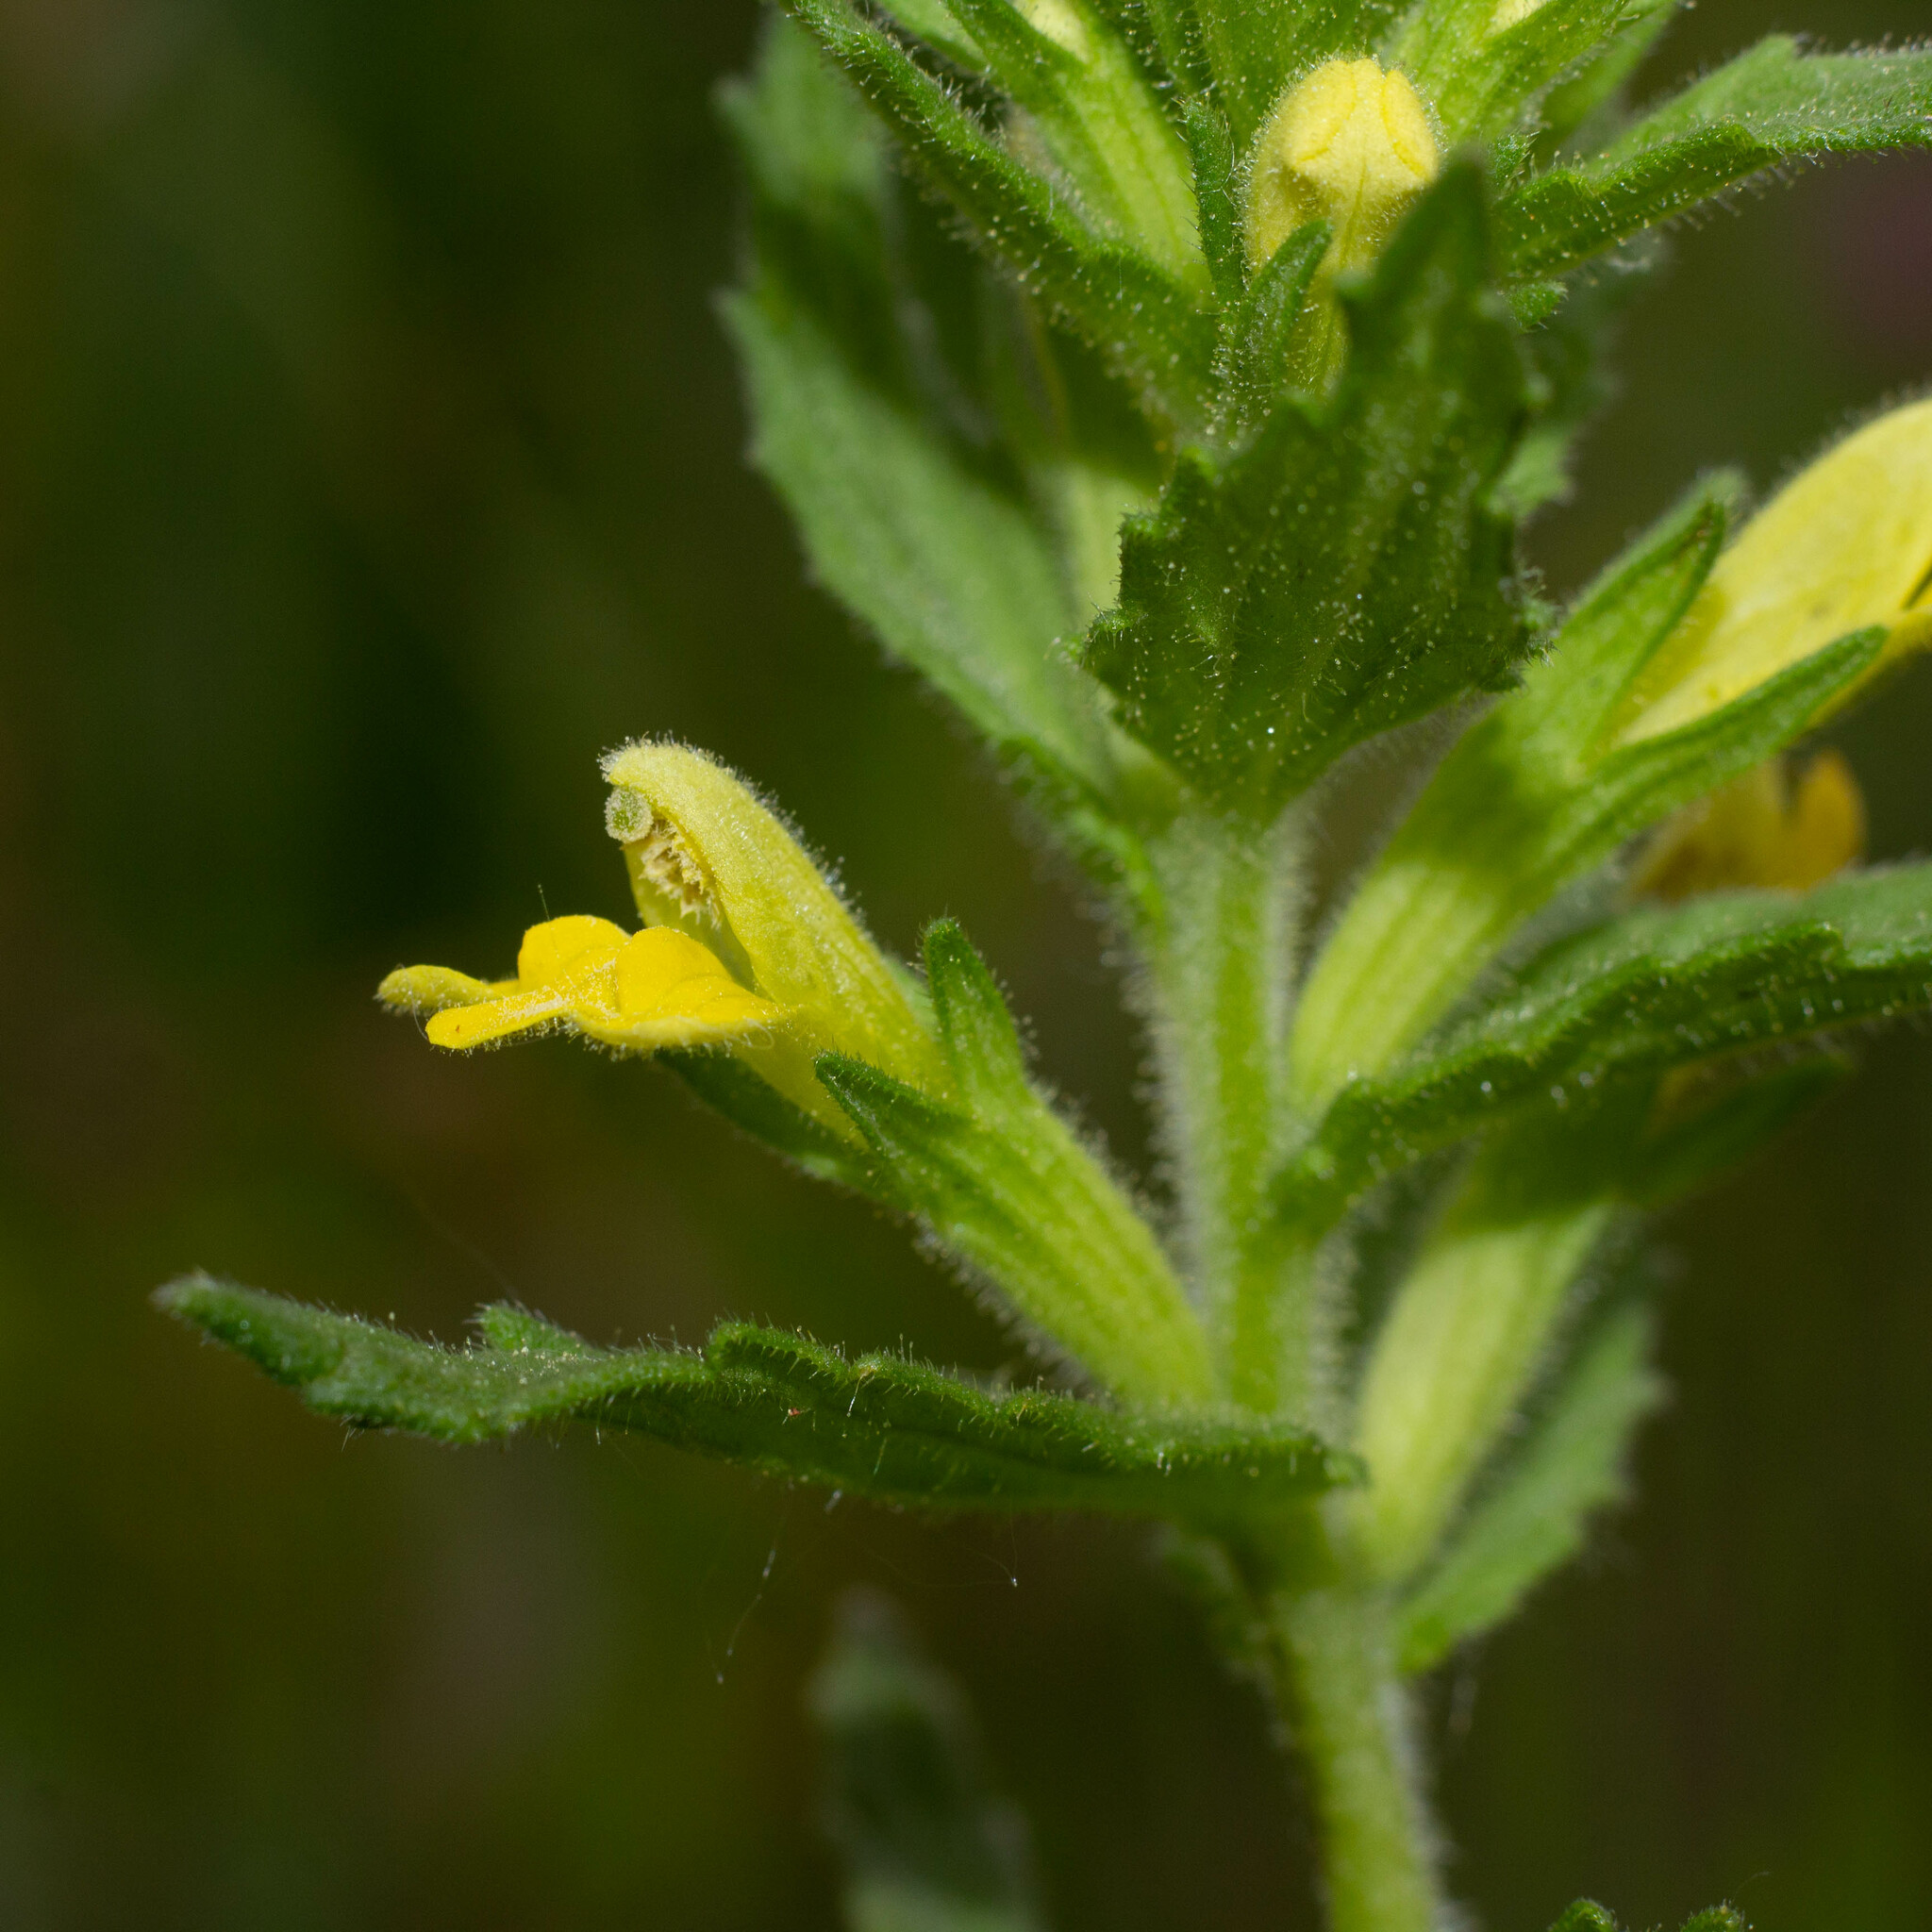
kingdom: Plantae
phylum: Tracheophyta
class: Magnoliopsida
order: Lamiales
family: Orobanchaceae
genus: Bellardia
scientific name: Bellardia viscosa
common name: Sticky parentucellia
